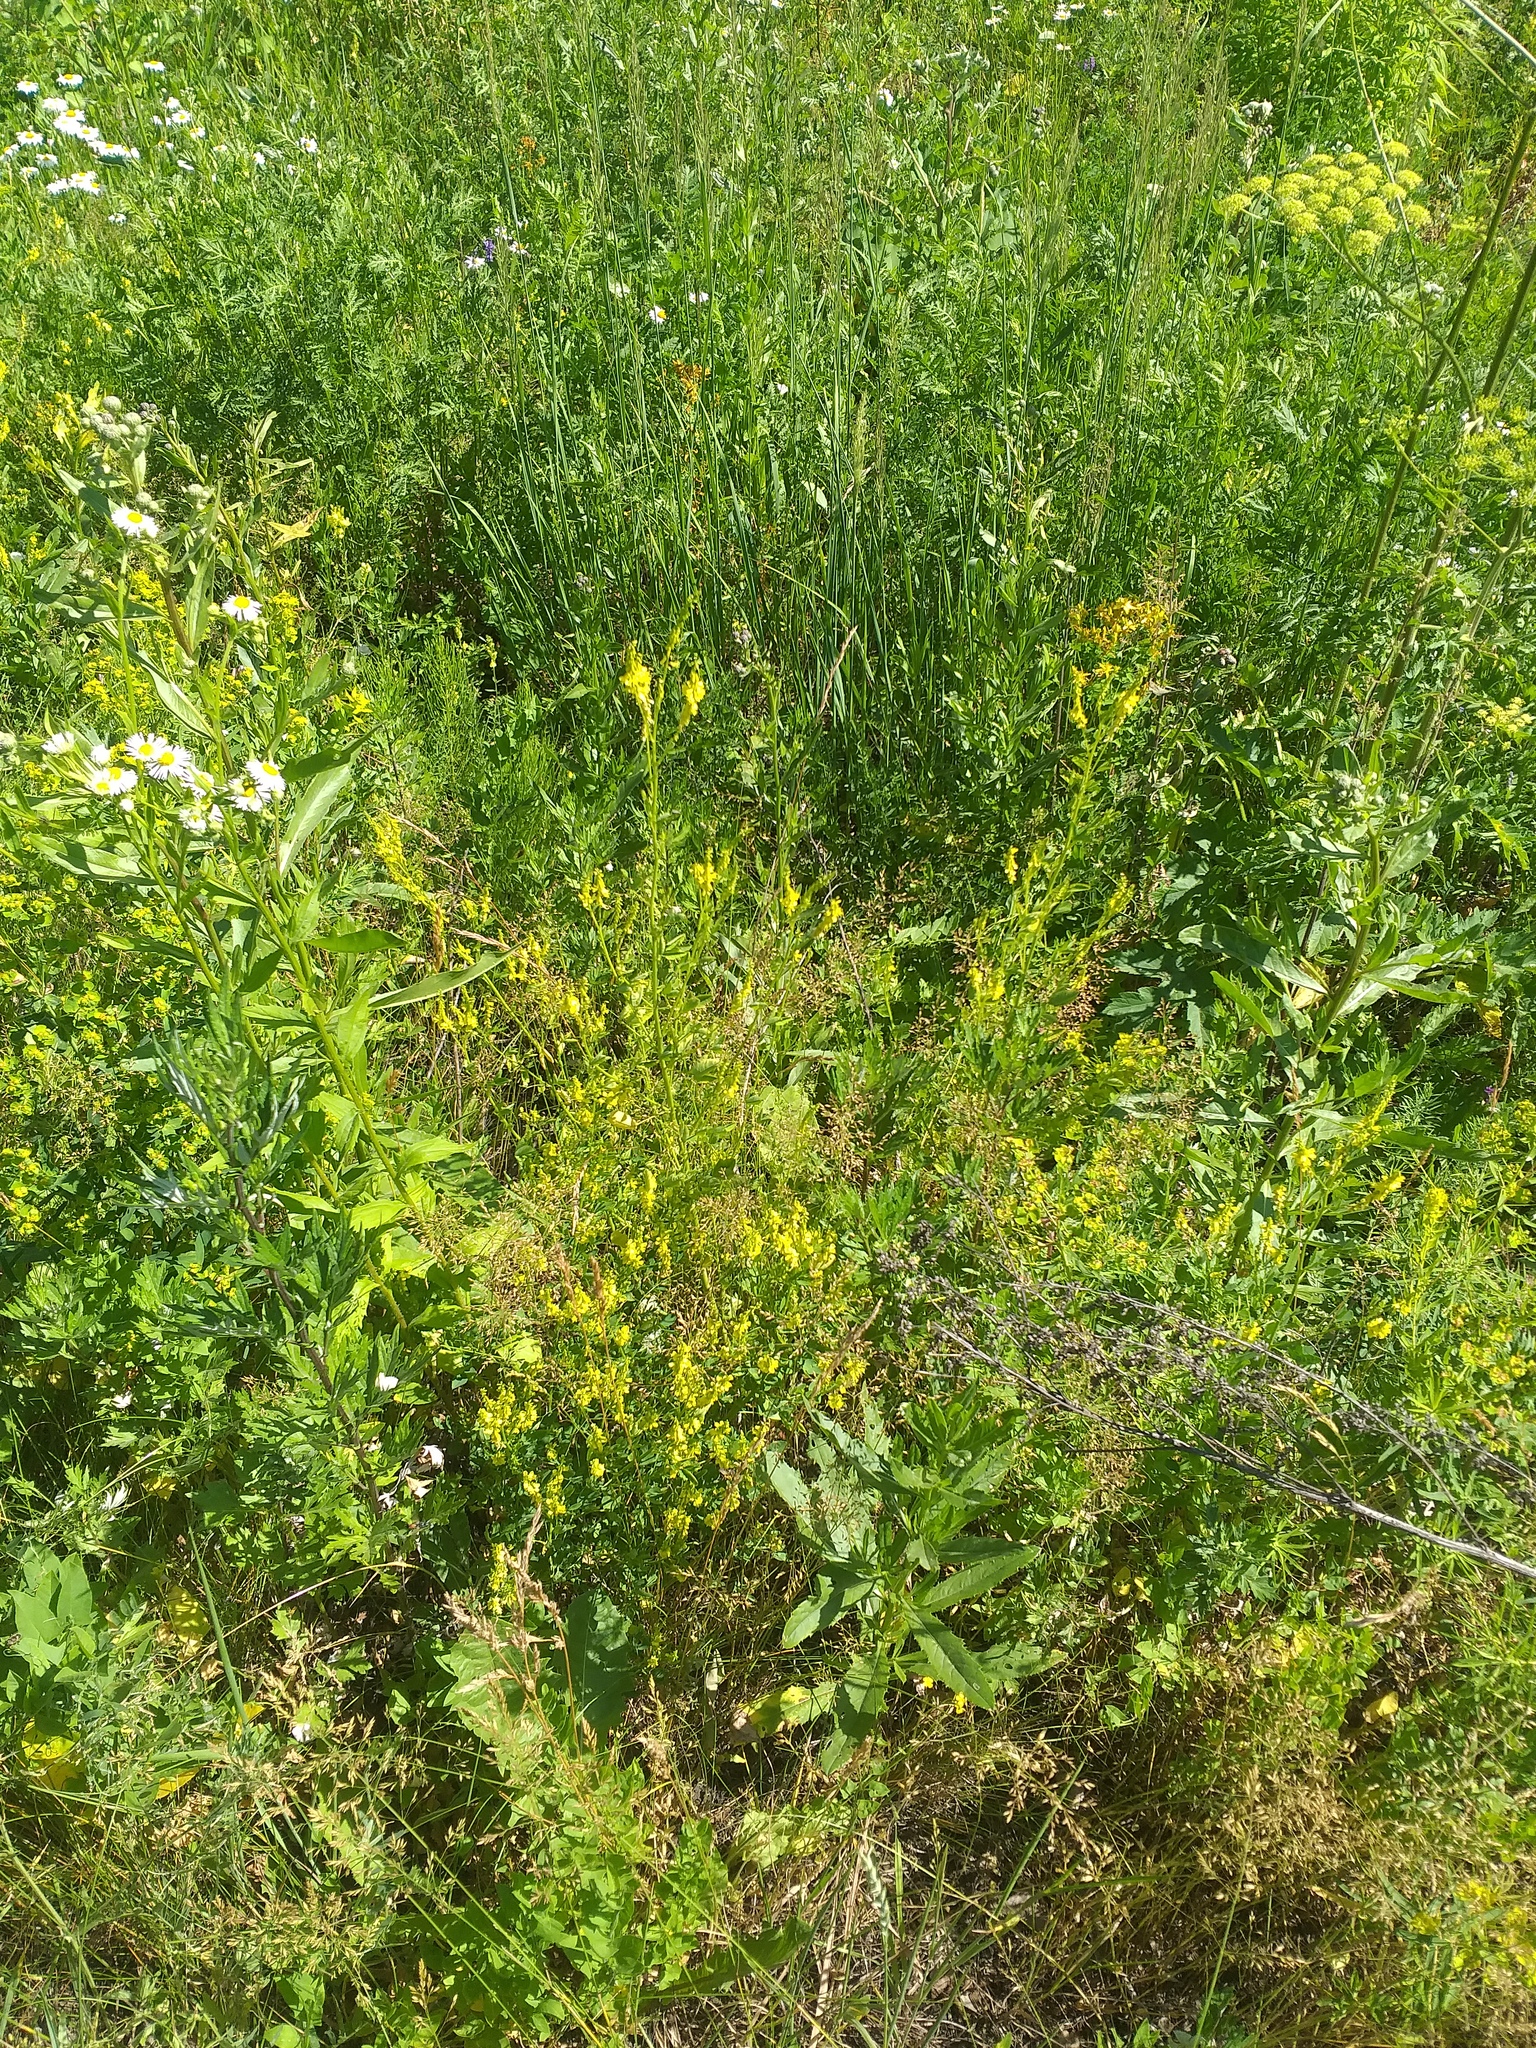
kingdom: Plantae
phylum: Tracheophyta
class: Magnoliopsida
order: Fabales
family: Fabaceae
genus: Melilotus
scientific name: Melilotus officinalis
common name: Sweetclover
